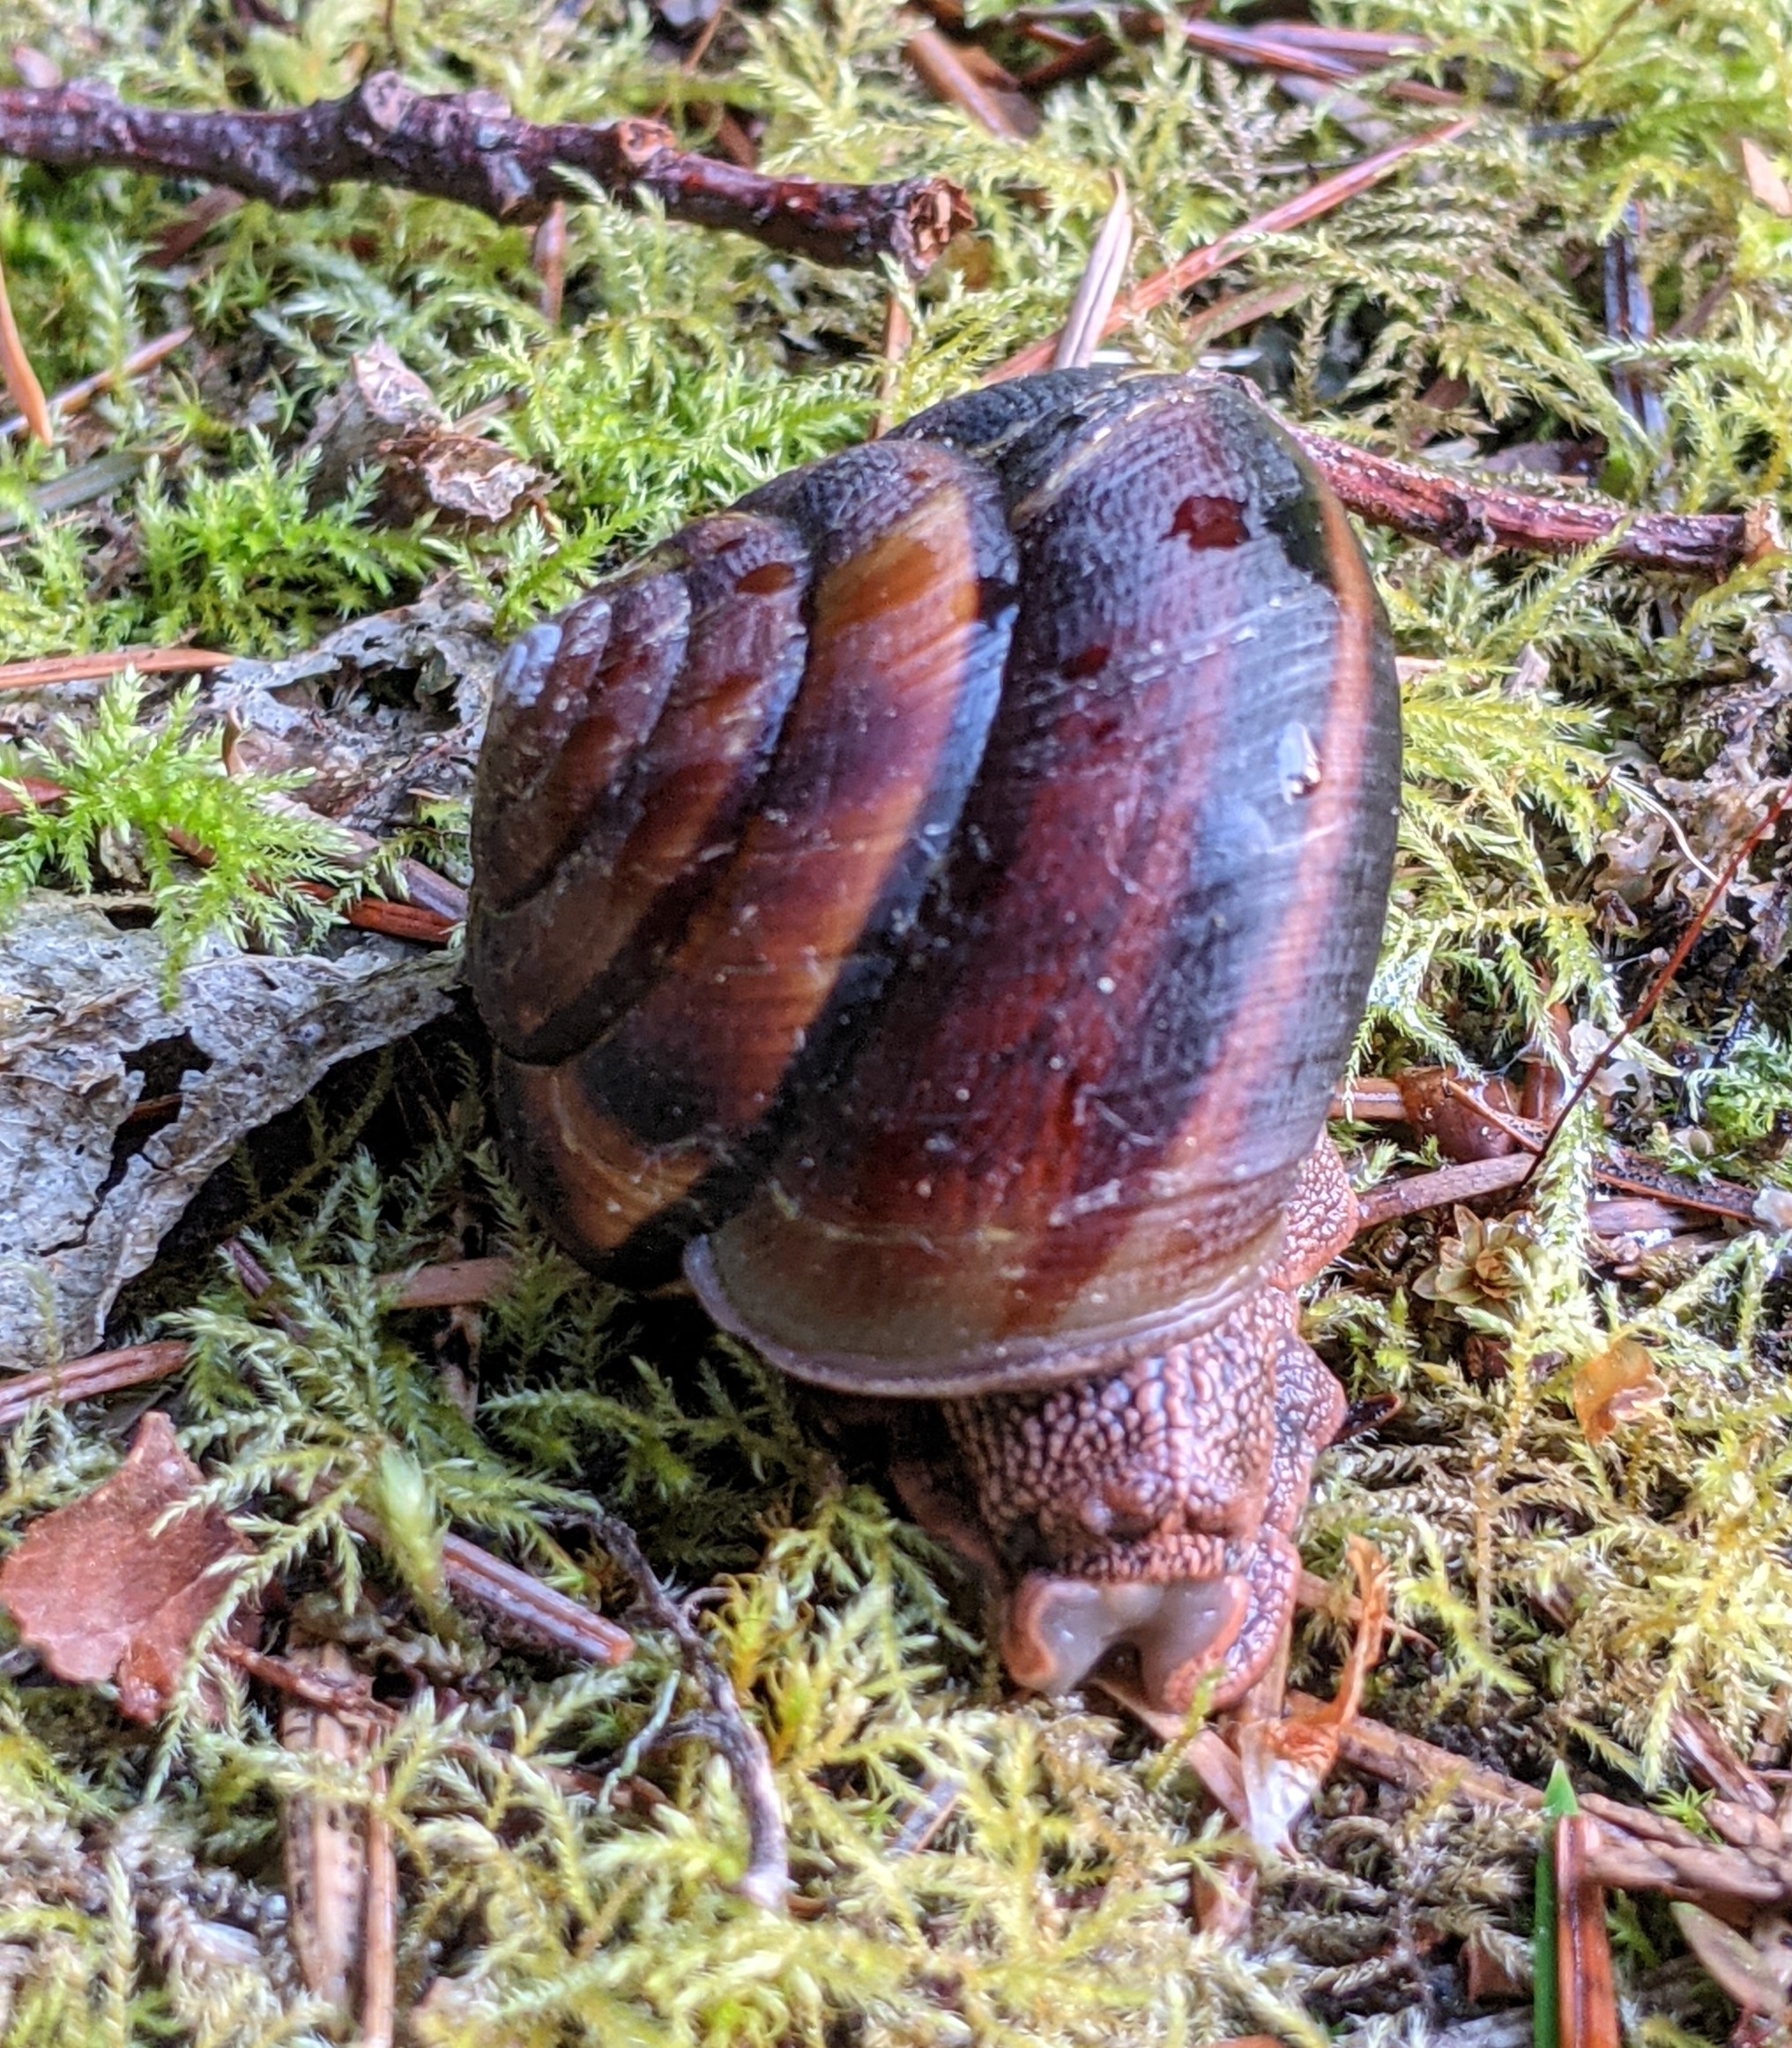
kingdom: Animalia
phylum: Mollusca
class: Gastropoda
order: Stylommatophora
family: Xanthonychidae
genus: Monadenia
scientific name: Monadenia fidelis
